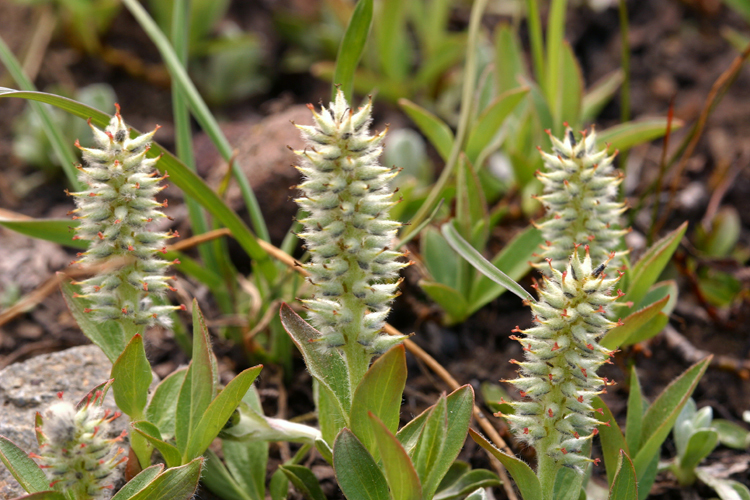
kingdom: Plantae
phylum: Tracheophyta
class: Magnoliopsida
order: Malpighiales
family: Salicaceae
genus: Salix
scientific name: Salix petrophila
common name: Rocky mountain willow
